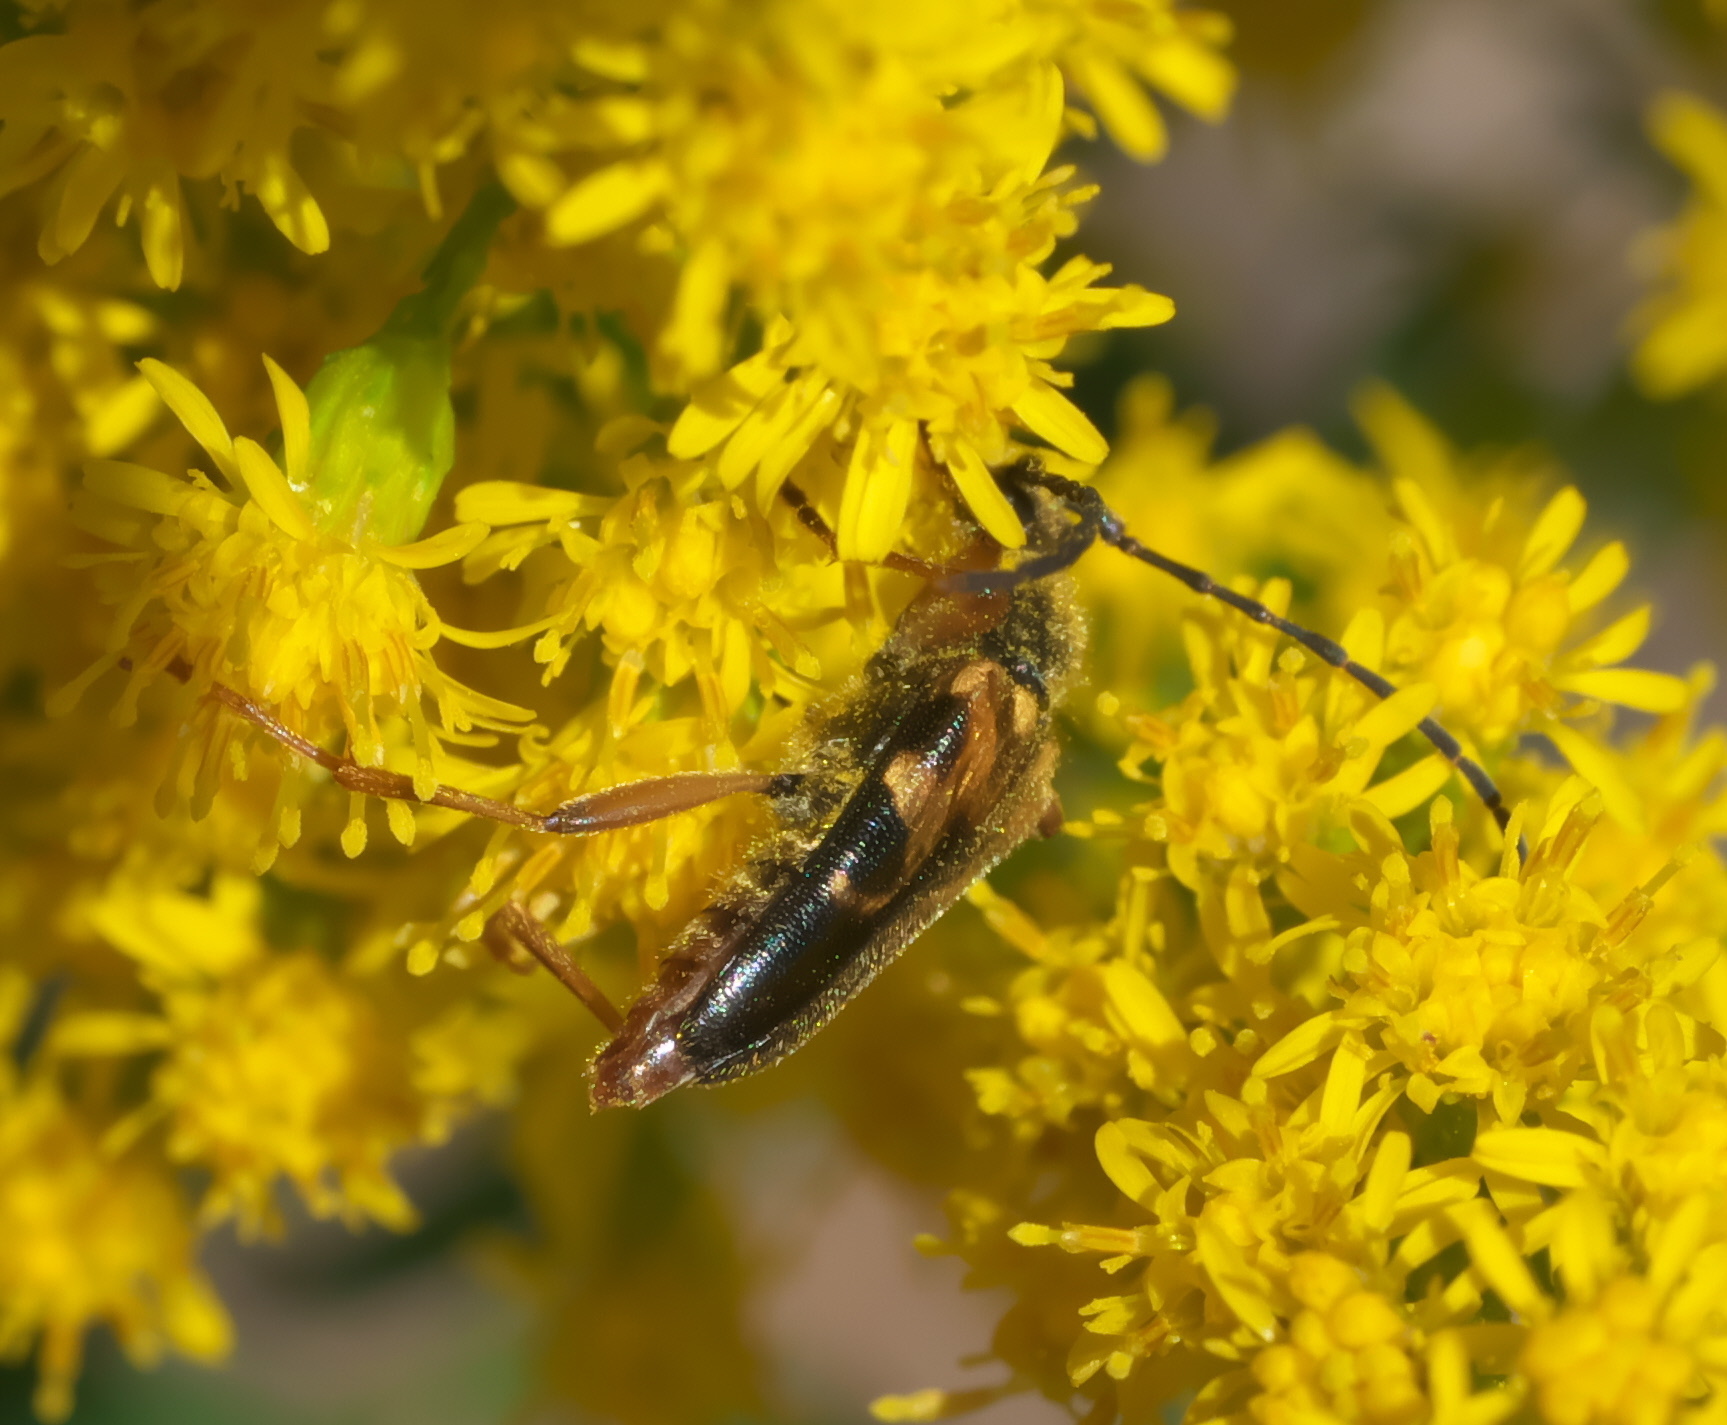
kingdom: Animalia
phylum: Arthropoda
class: Insecta
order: Coleoptera
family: Cerambycidae
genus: Xestoleptura
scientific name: Xestoleptura crassipes
